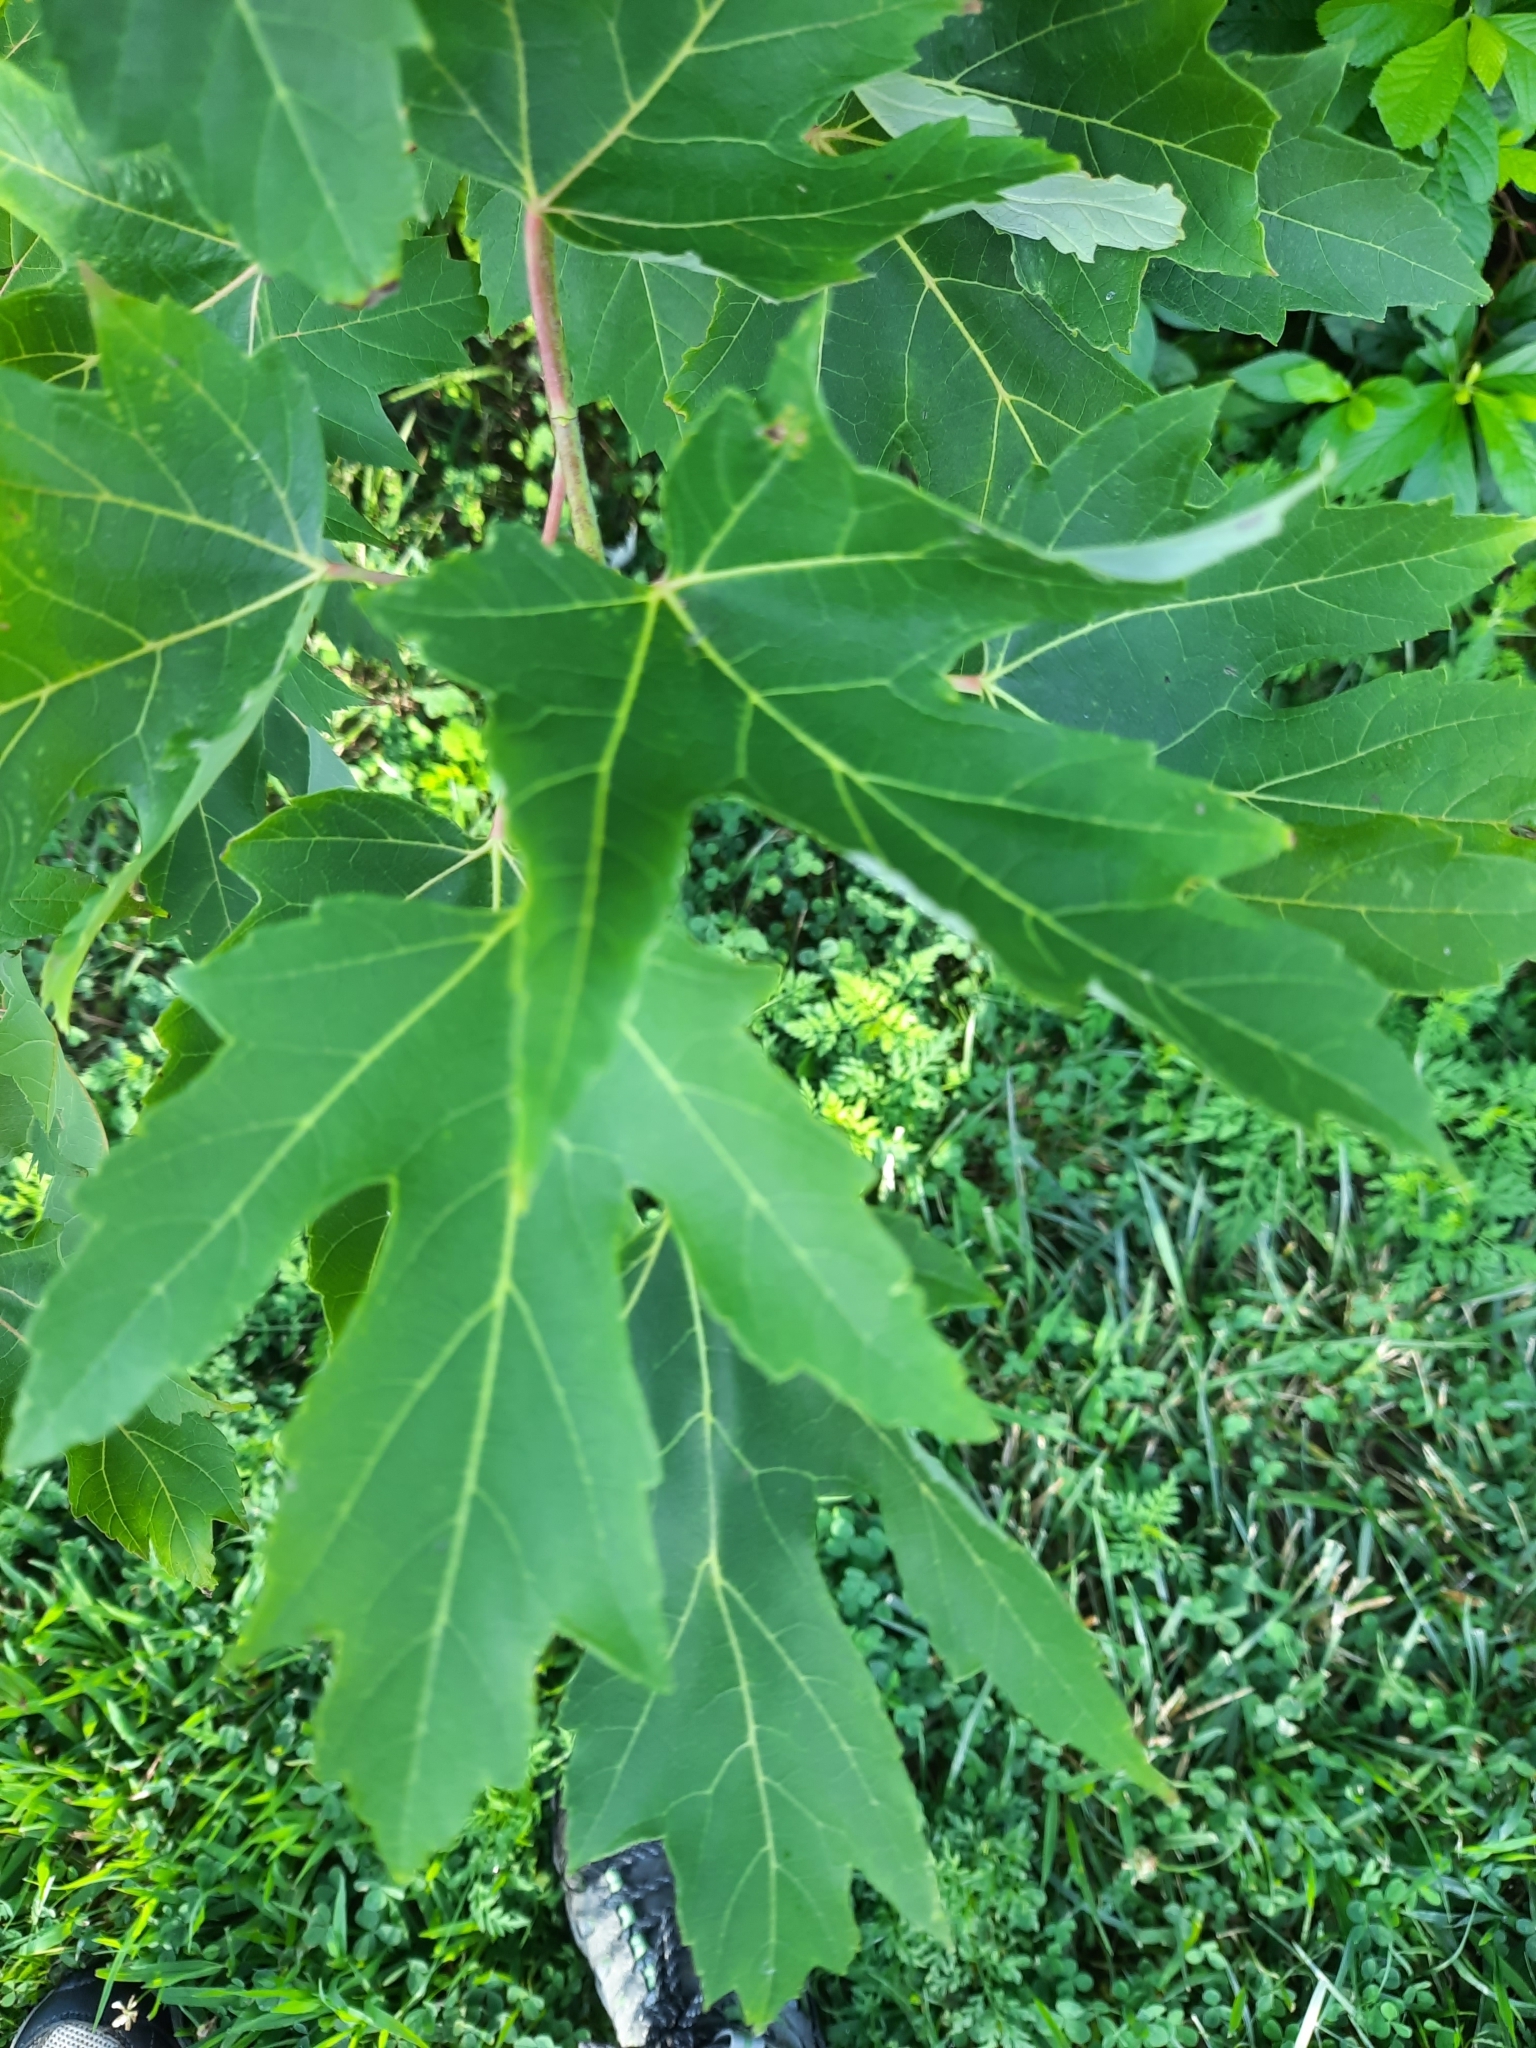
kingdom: Plantae
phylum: Tracheophyta
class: Magnoliopsida
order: Sapindales
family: Sapindaceae
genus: Acer
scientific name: Acer saccharinum
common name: Silver maple
